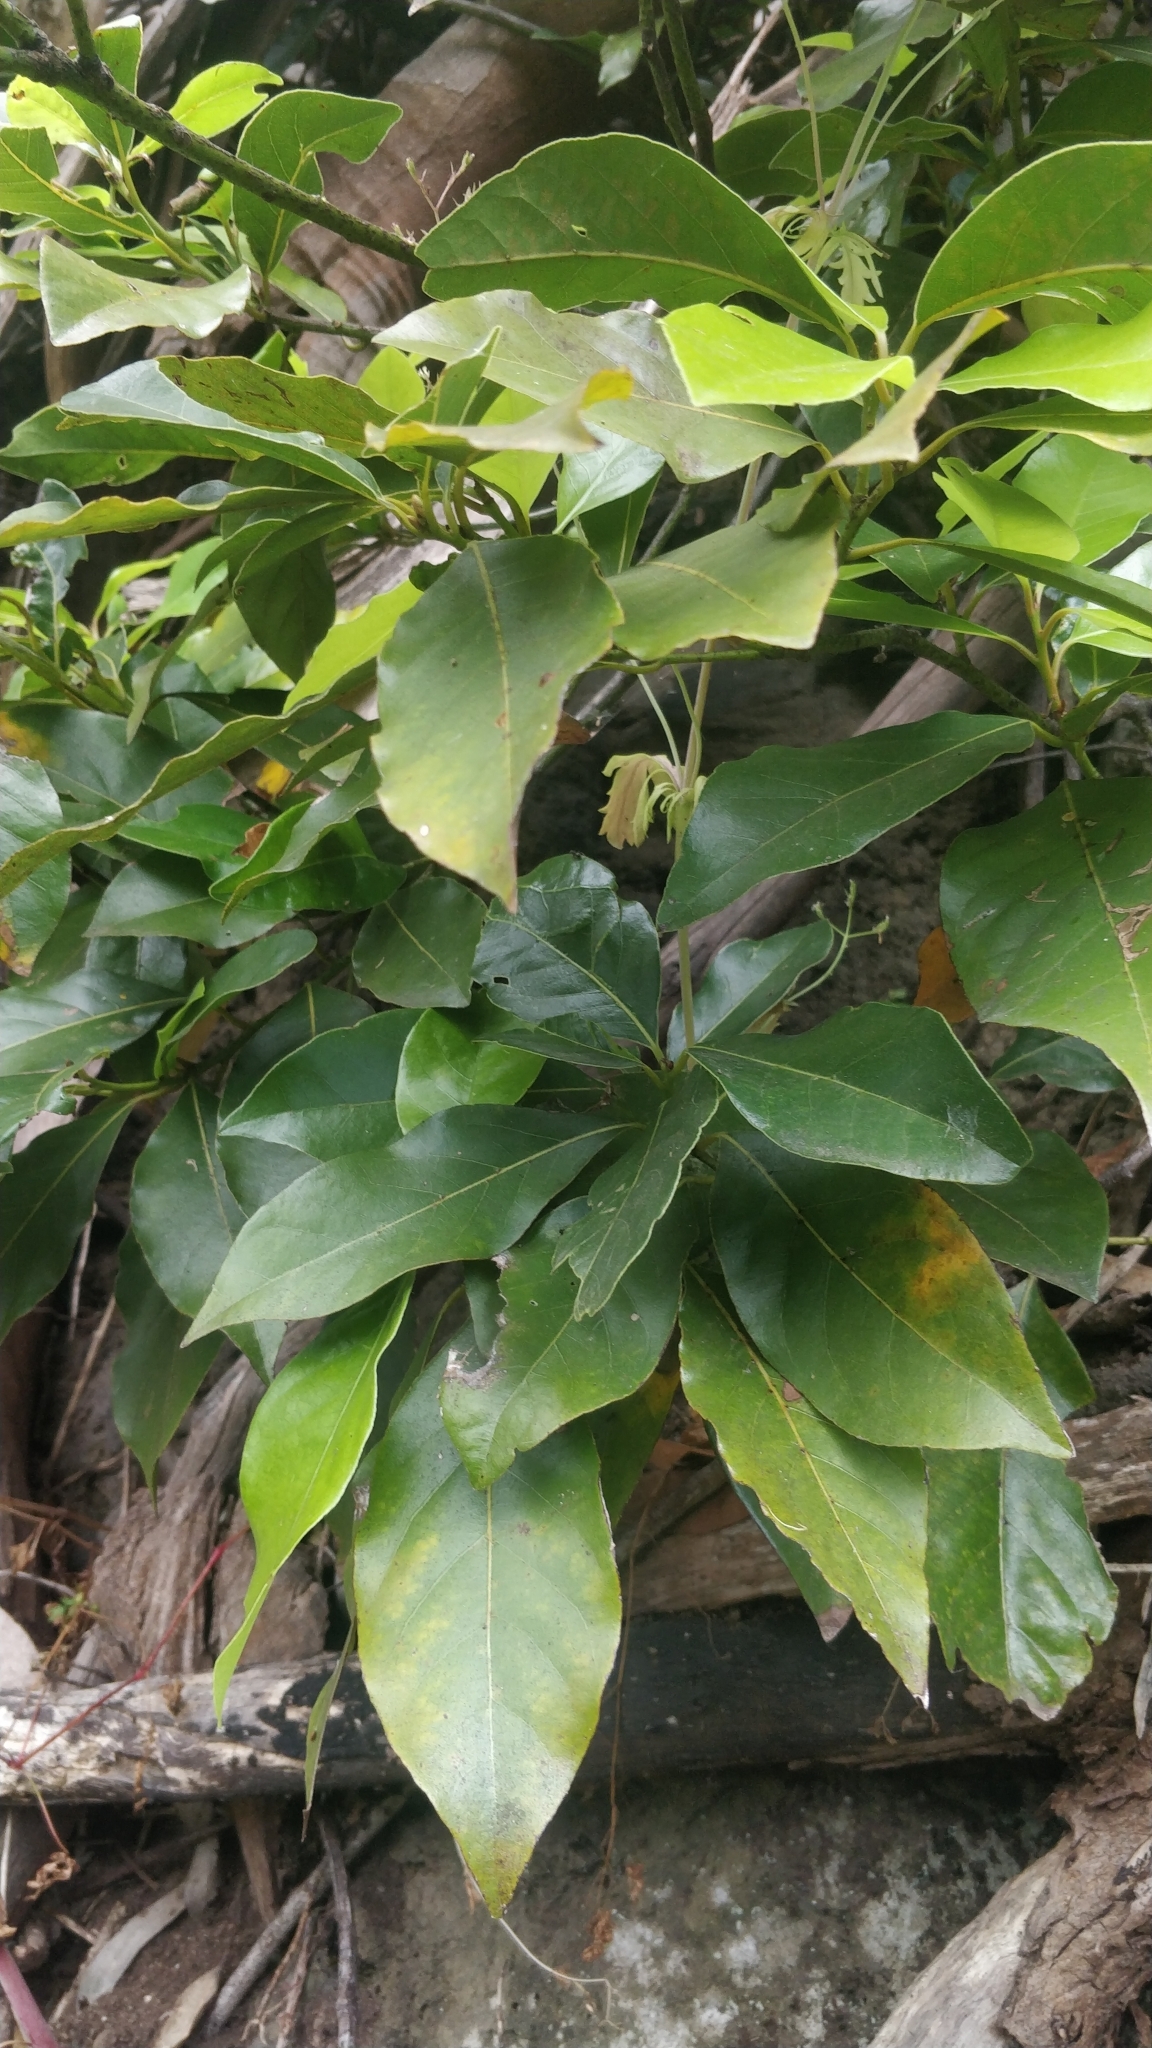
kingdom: Plantae
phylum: Tracheophyta
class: Magnoliopsida
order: Laurales
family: Lauraceae
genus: Laurus
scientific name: Laurus novocanariensis
